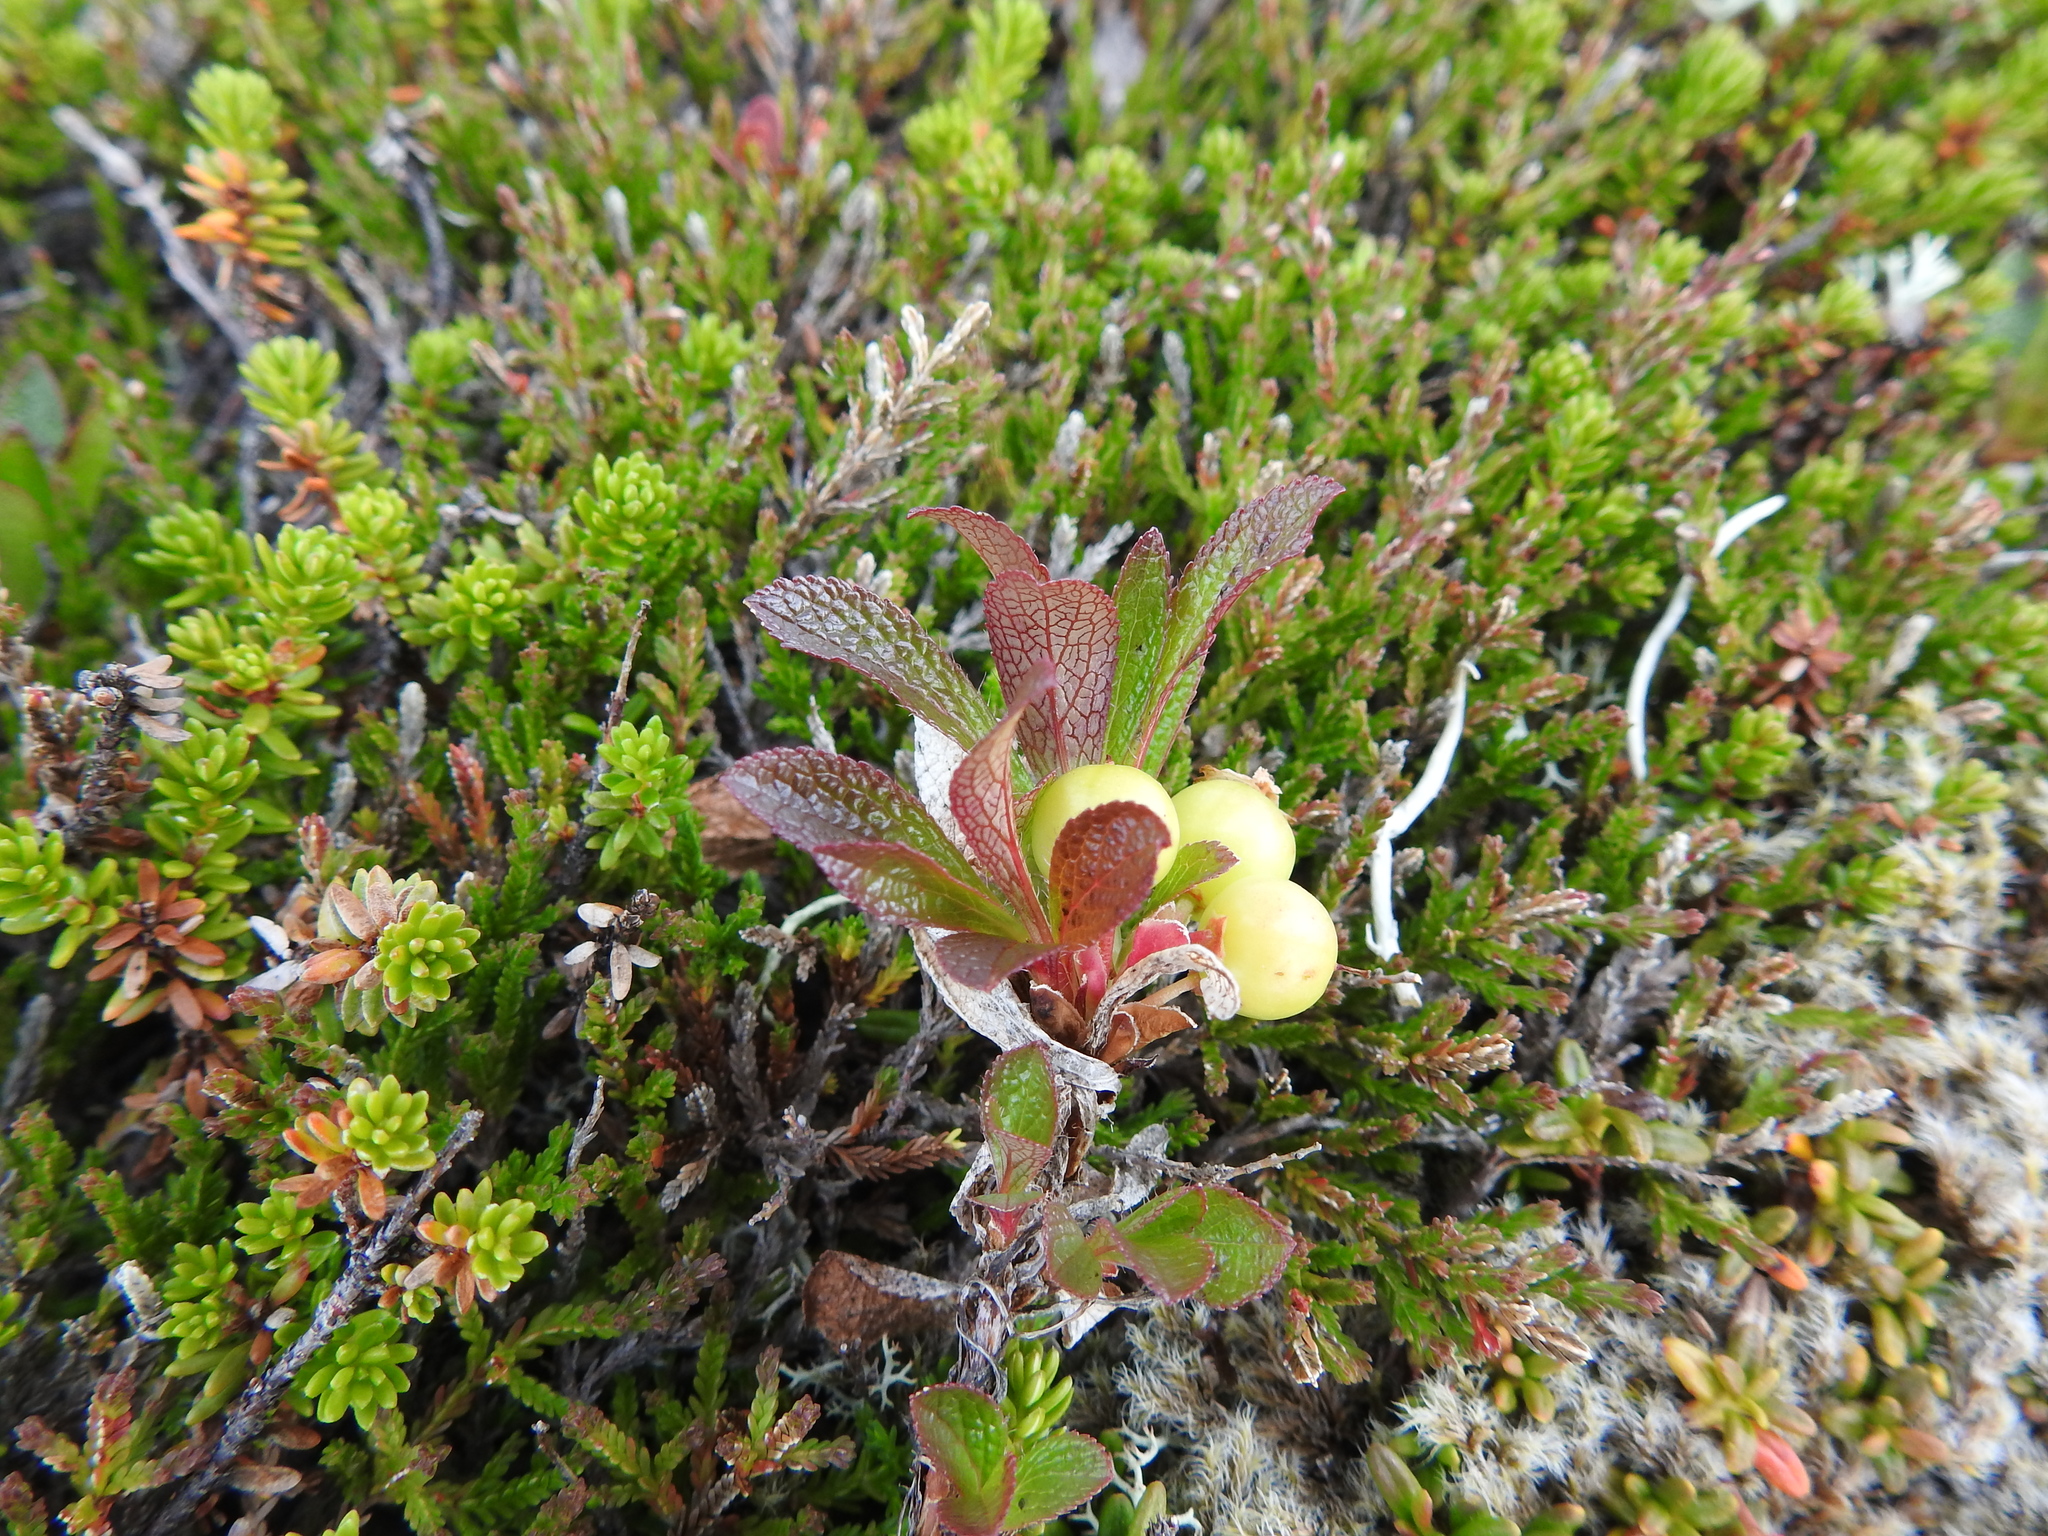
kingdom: Plantae
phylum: Tracheophyta
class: Magnoliopsida
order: Ericales
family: Ericaceae
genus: Arctostaphylos
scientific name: Arctostaphylos alpinus
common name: Alpine bearberry
